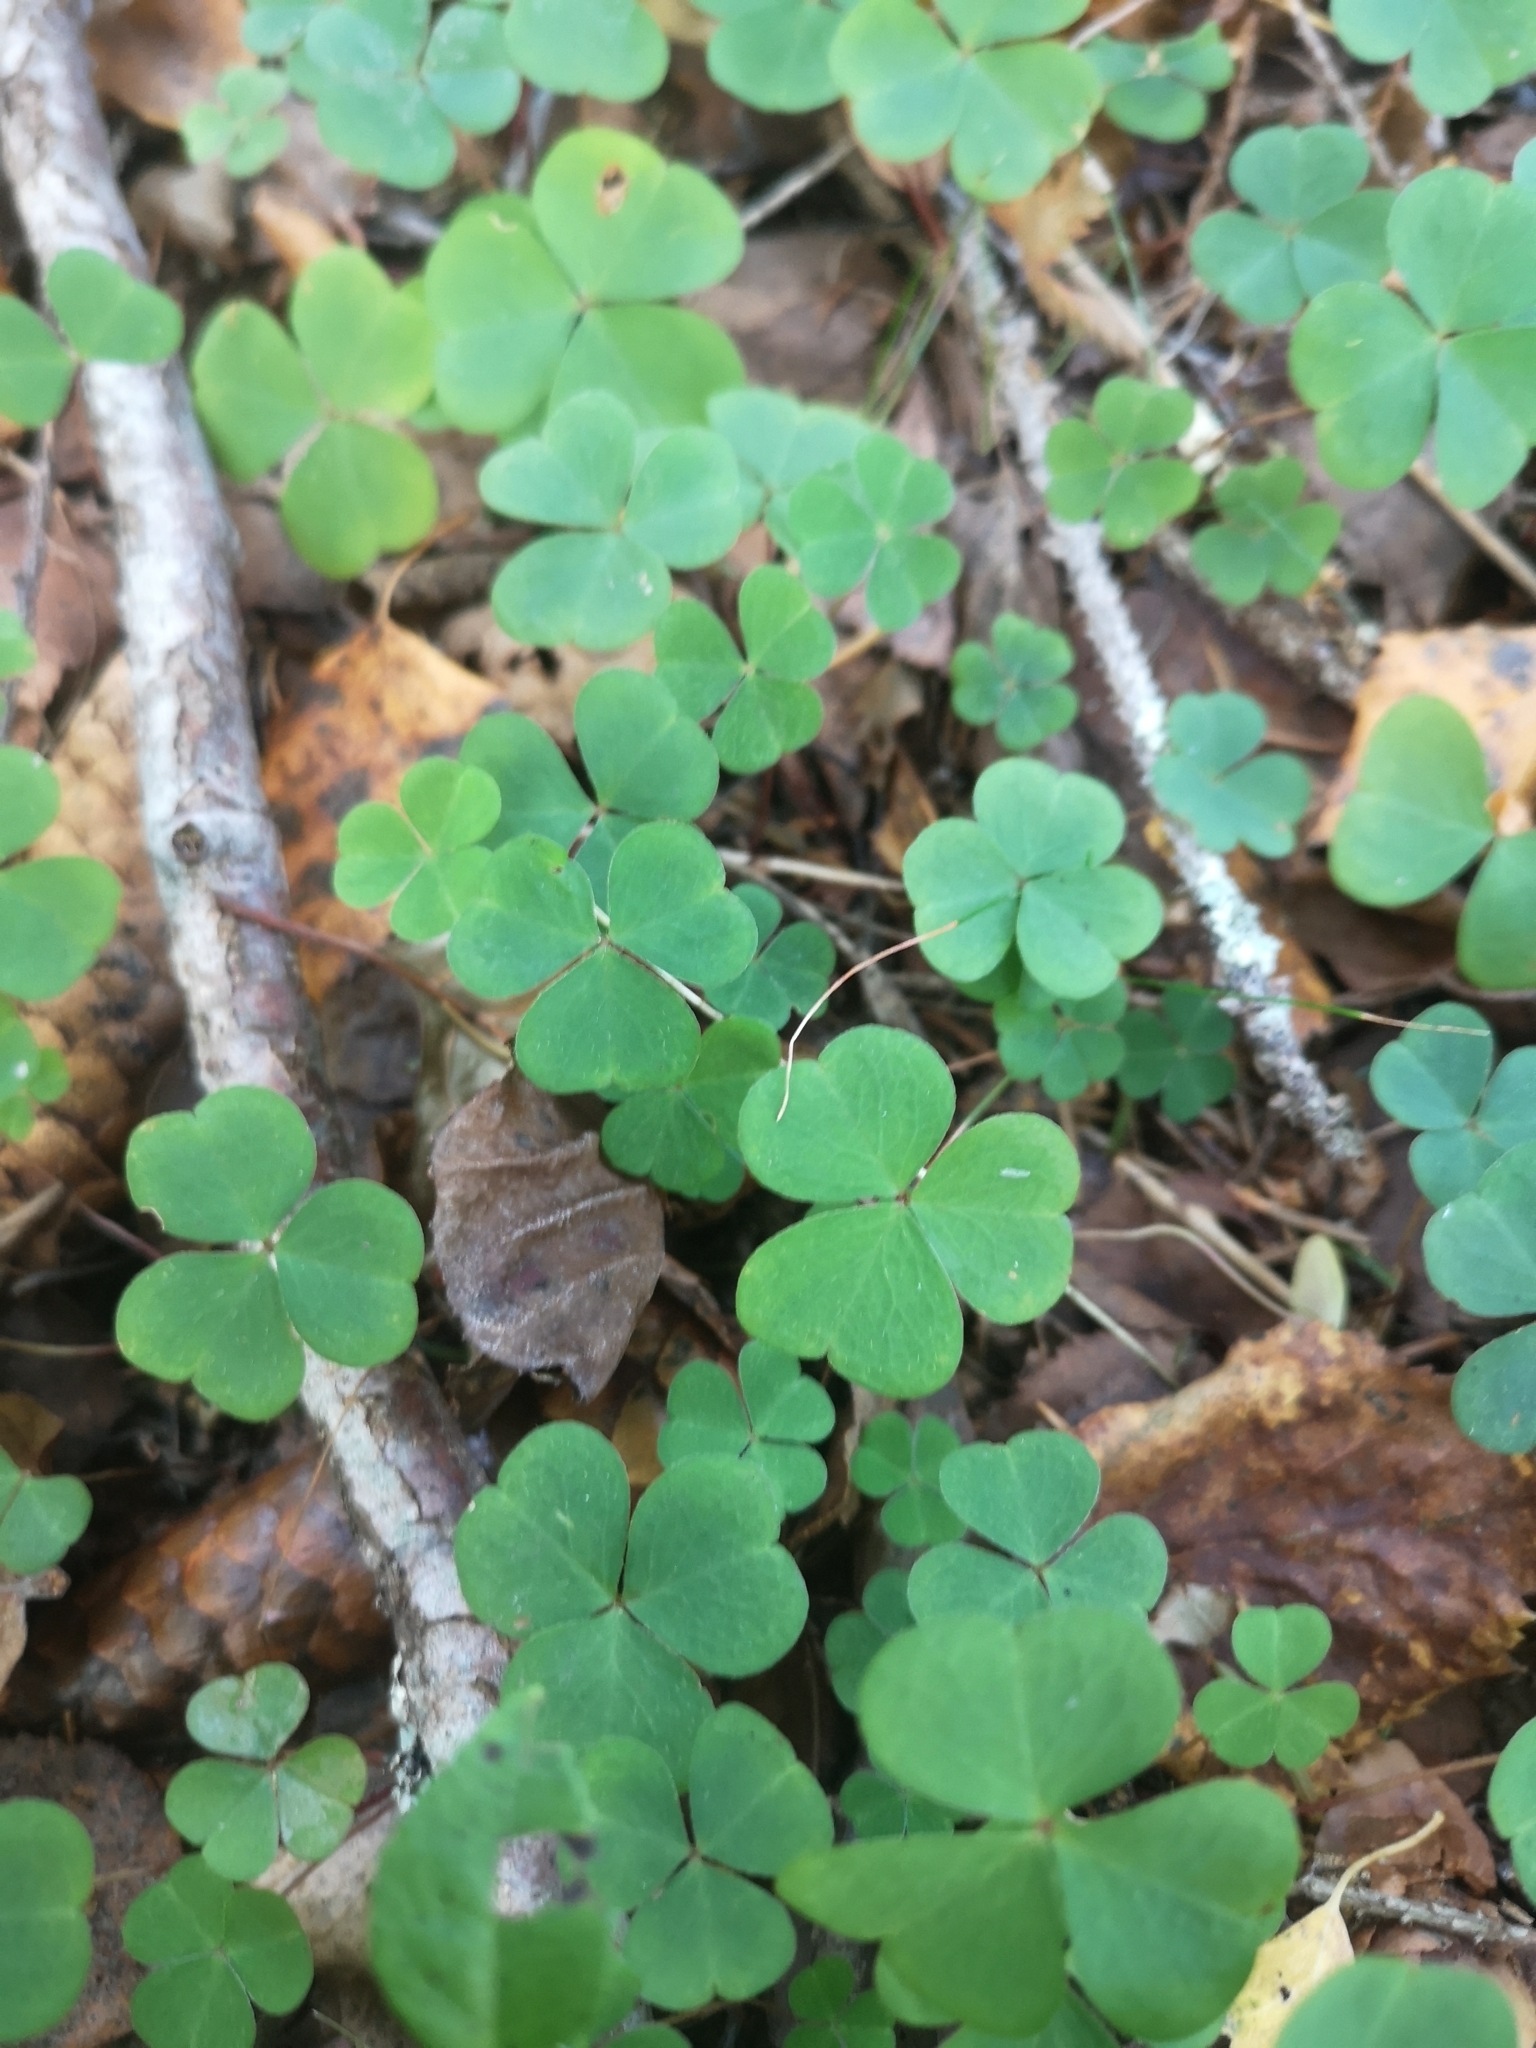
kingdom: Plantae
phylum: Tracheophyta
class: Magnoliopsida
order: Oxalidales
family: Oxalidaceae
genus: Oxalis
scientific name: Oxalis acetosella
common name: Wood-sorrel
